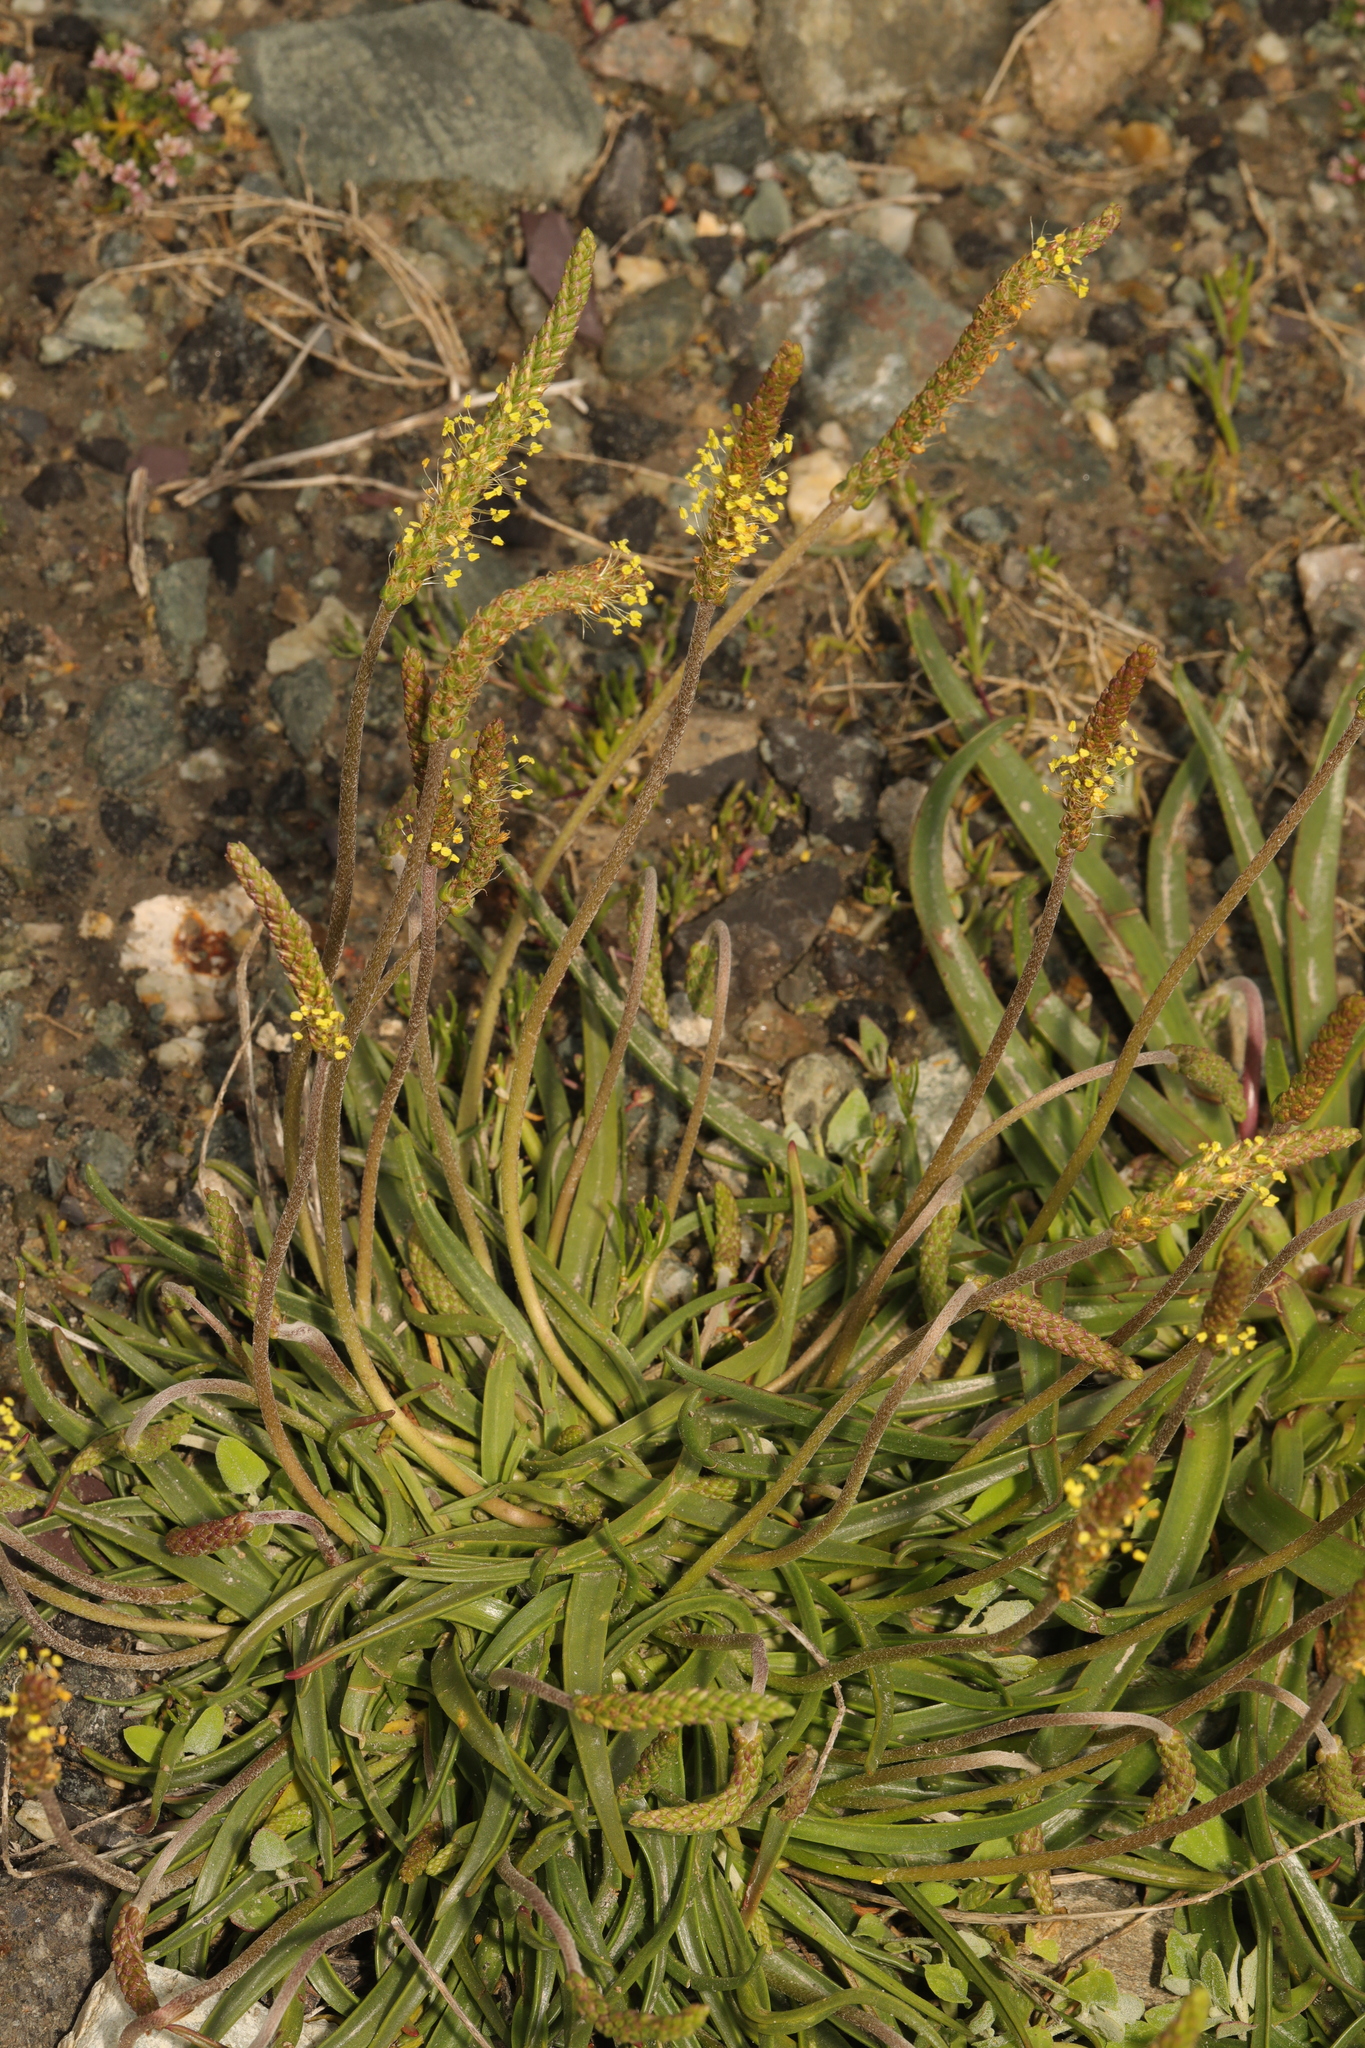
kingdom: Plantae
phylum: Tracheophyta
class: Magnoliopsida
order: Lamiales
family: Plantaginaceae
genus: Plantago
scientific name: Plantago maritima
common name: Sea plantain
